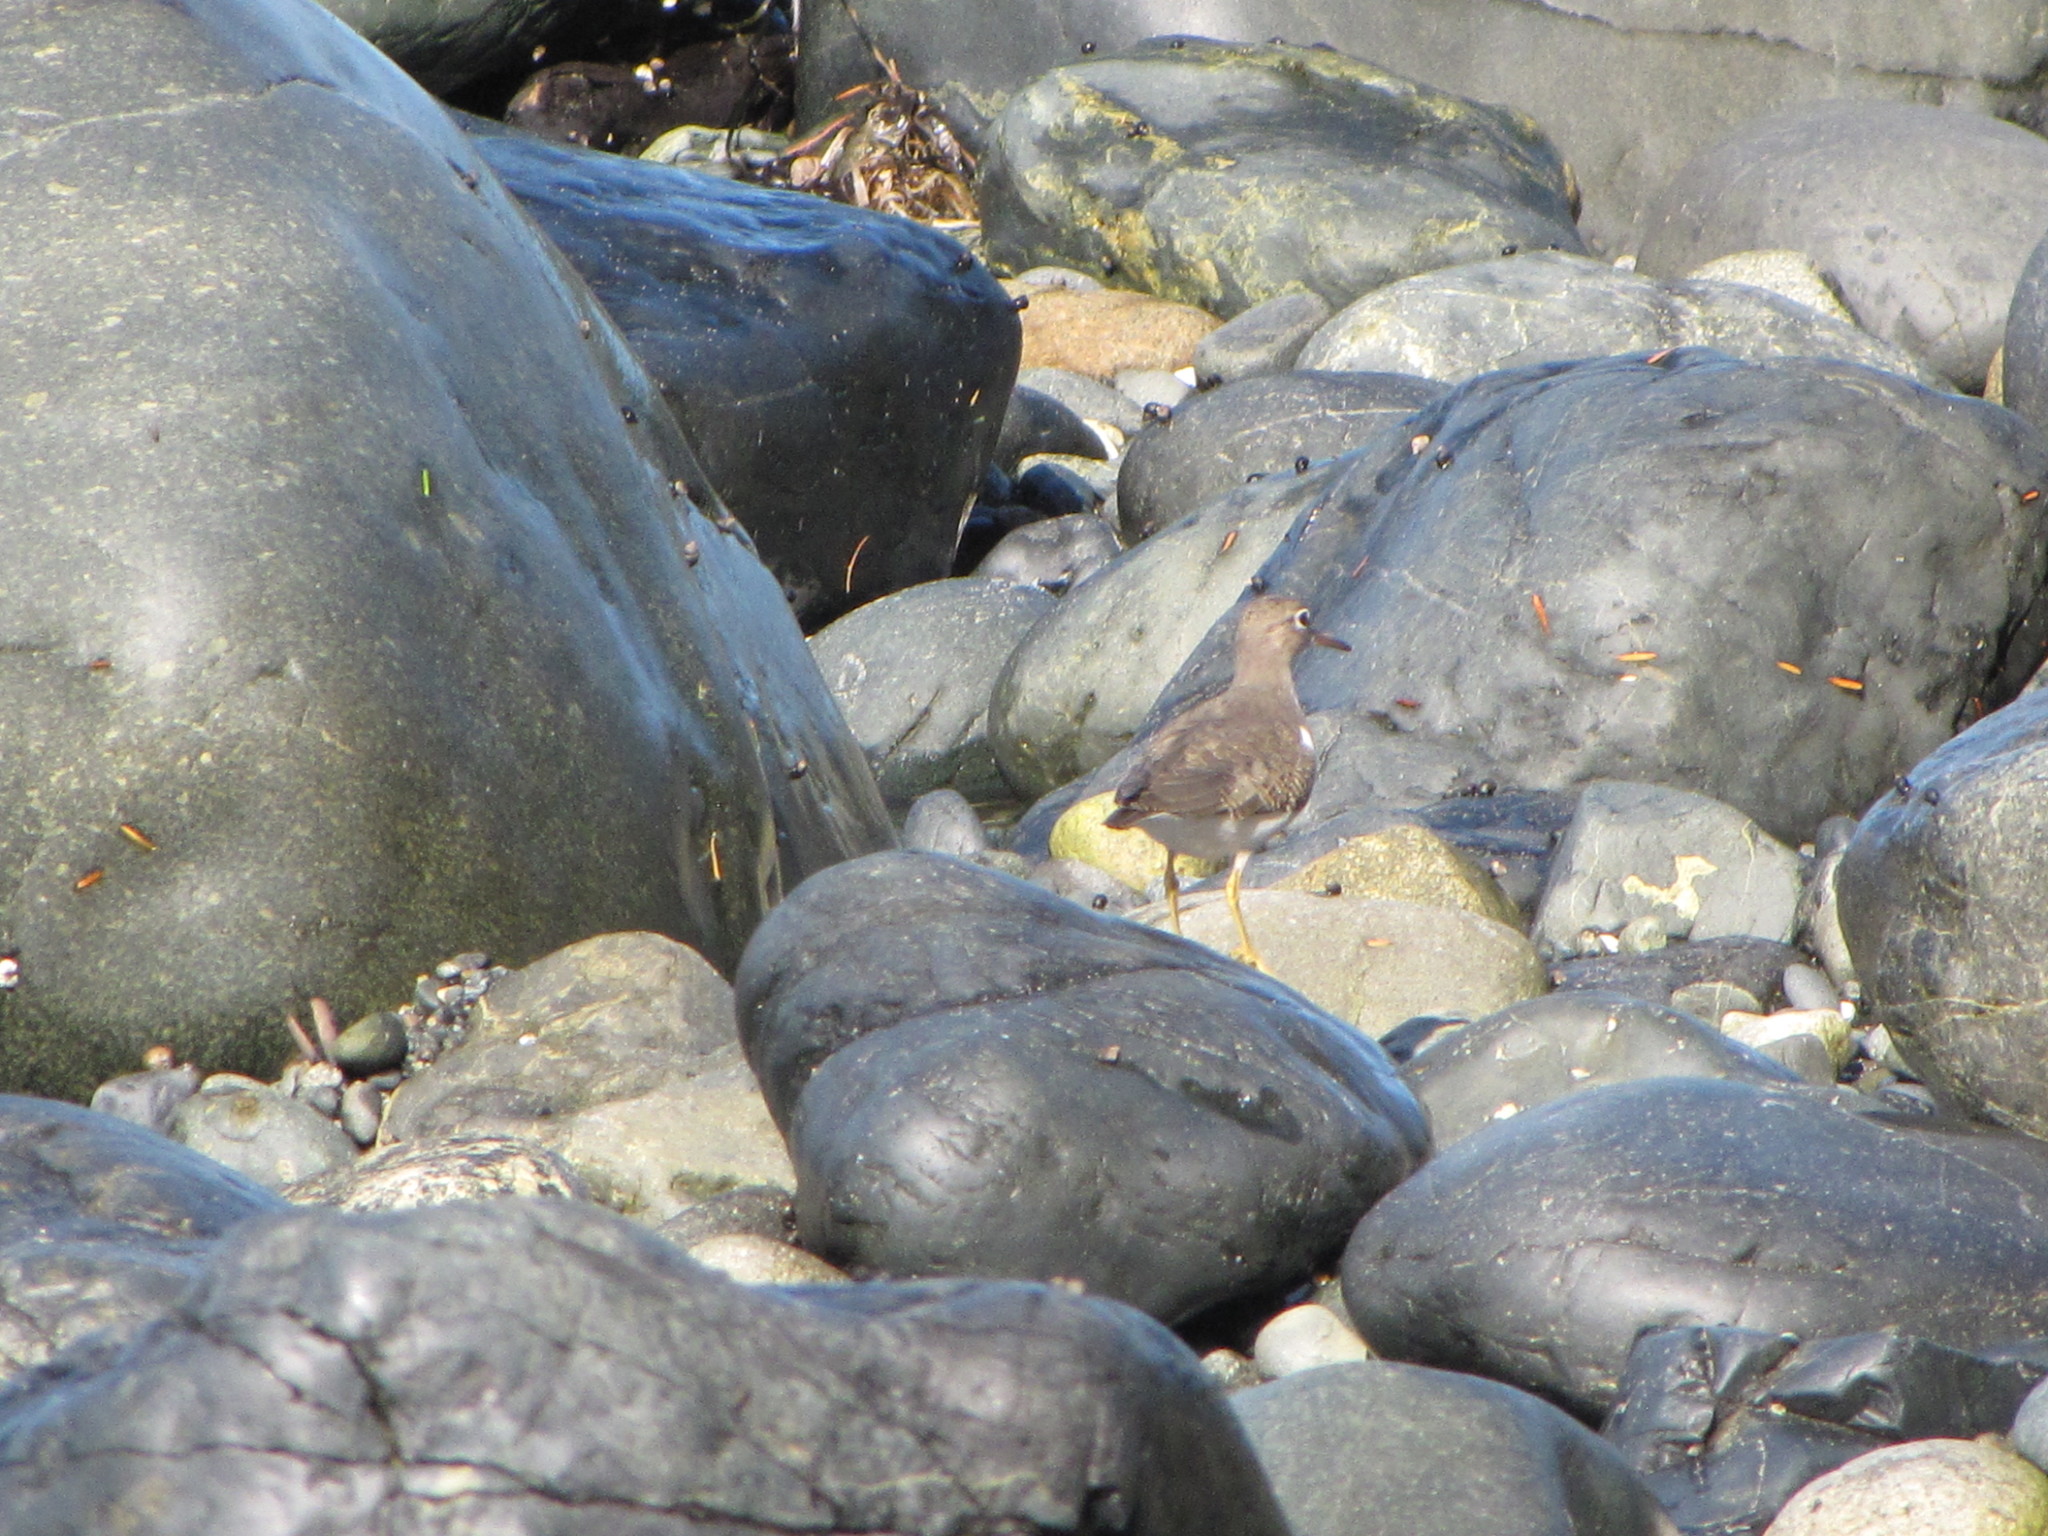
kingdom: Animalia
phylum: Chordata
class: Aves
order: Charadriiformes
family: Scolopacidae
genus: Actitis
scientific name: Actitis macularius
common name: Spotted sandpiper
